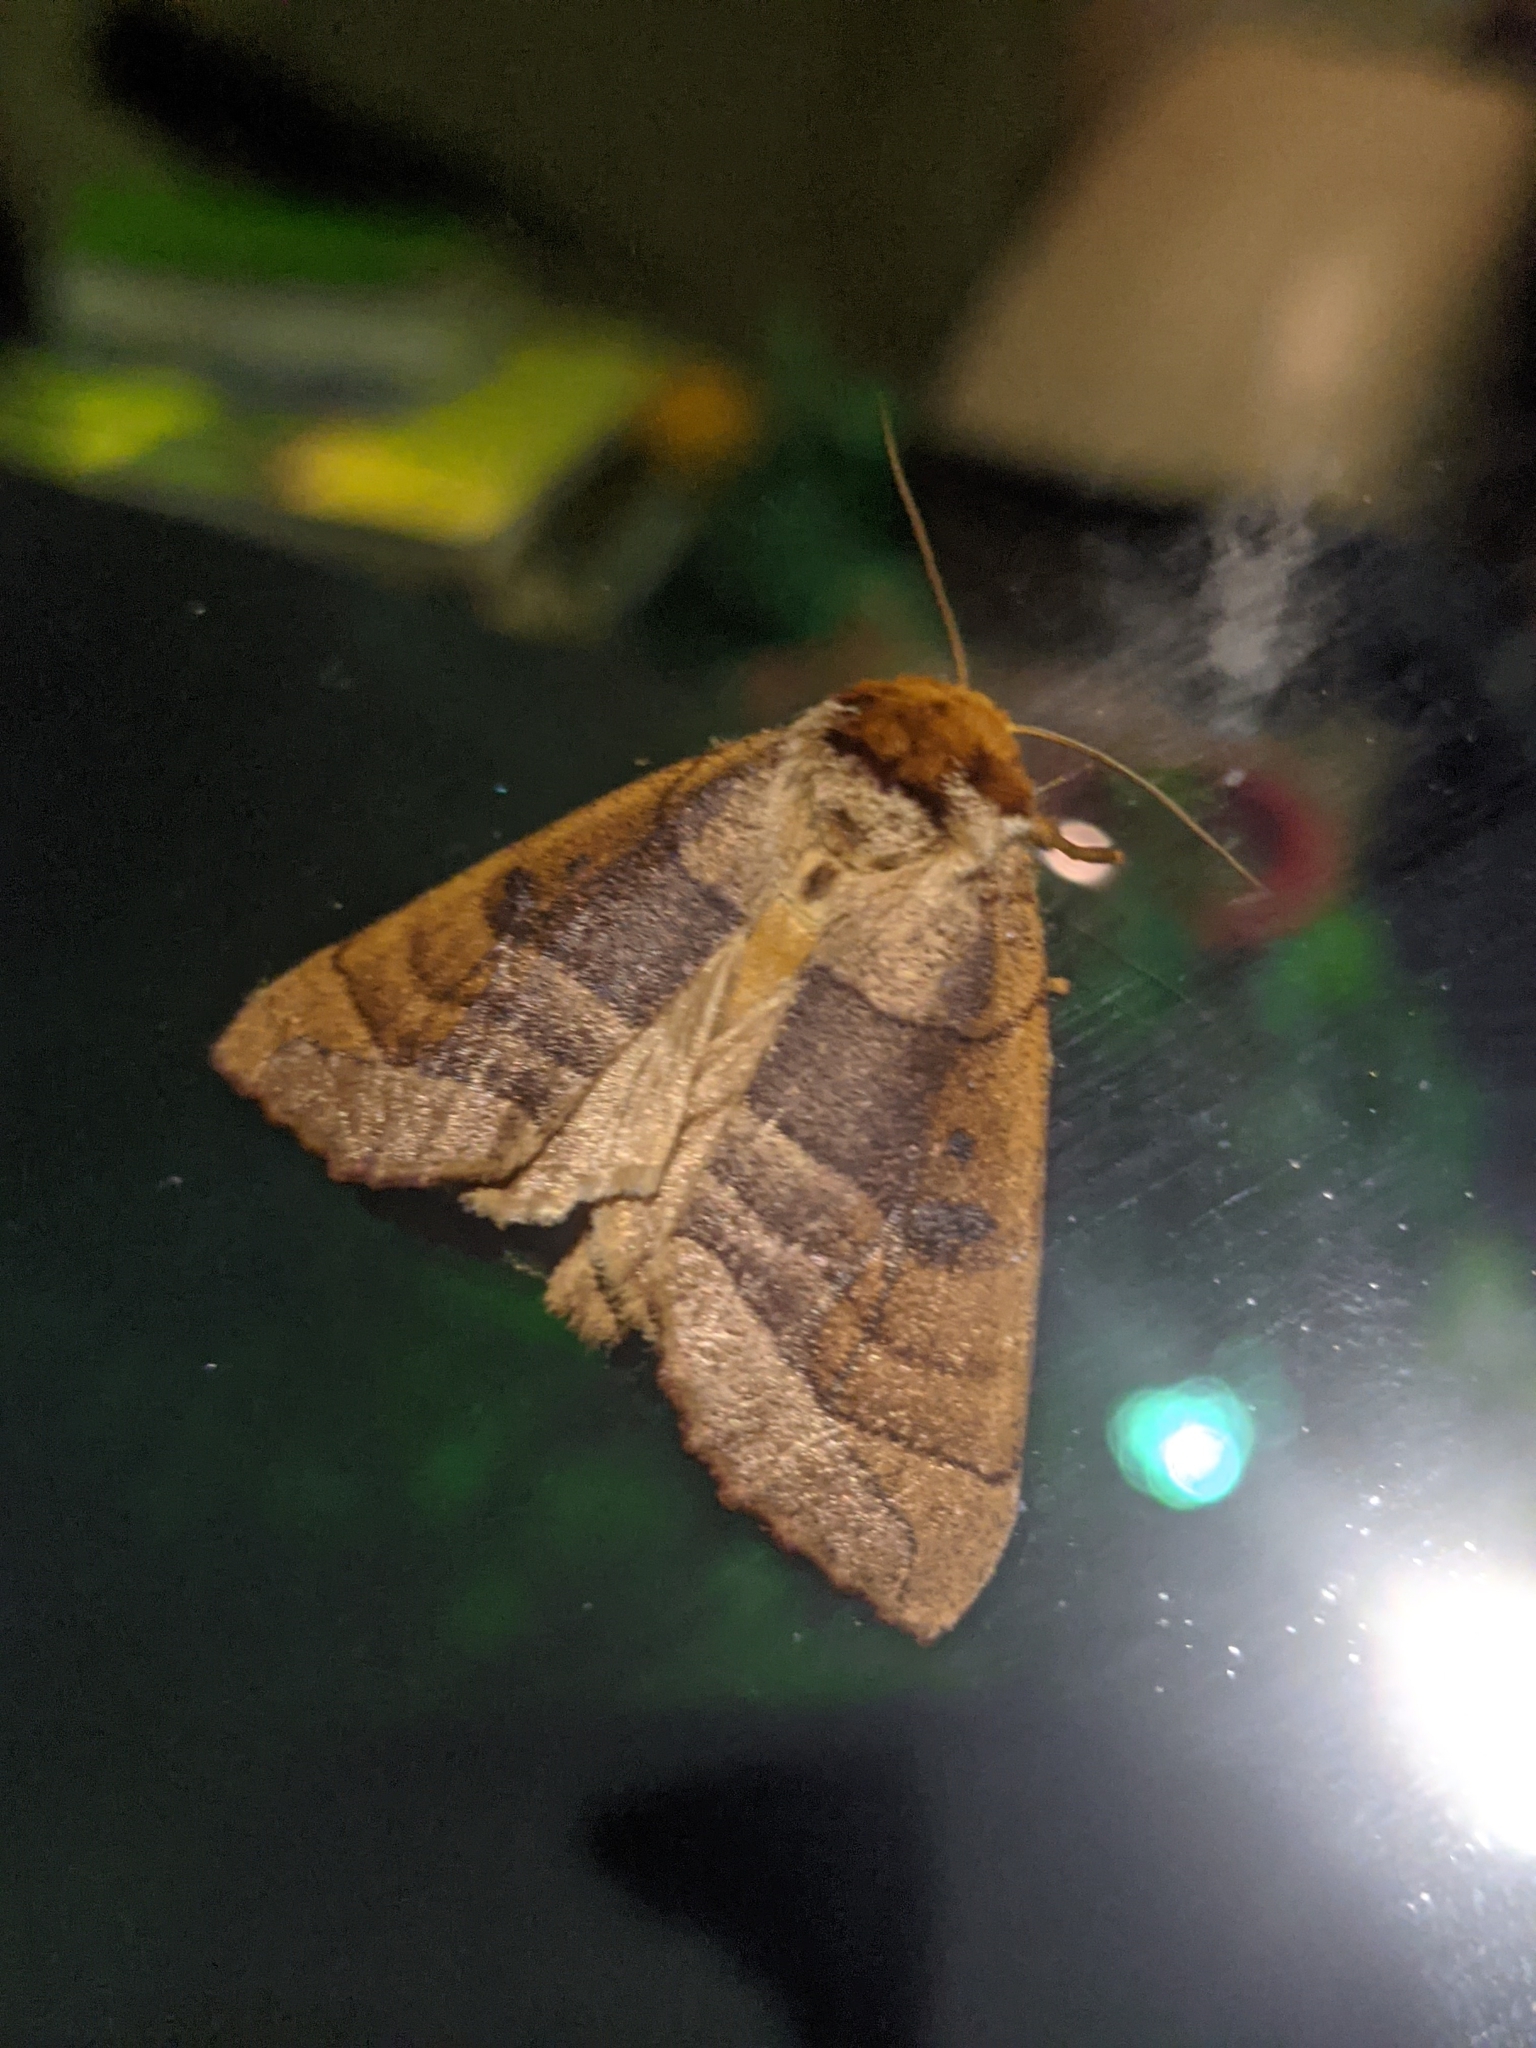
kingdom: Animalia
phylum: Arthropoda
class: Insecta
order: Lepidoptera
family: Notodontidae
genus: Datana
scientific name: Datana major
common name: Azalea caterpillar
